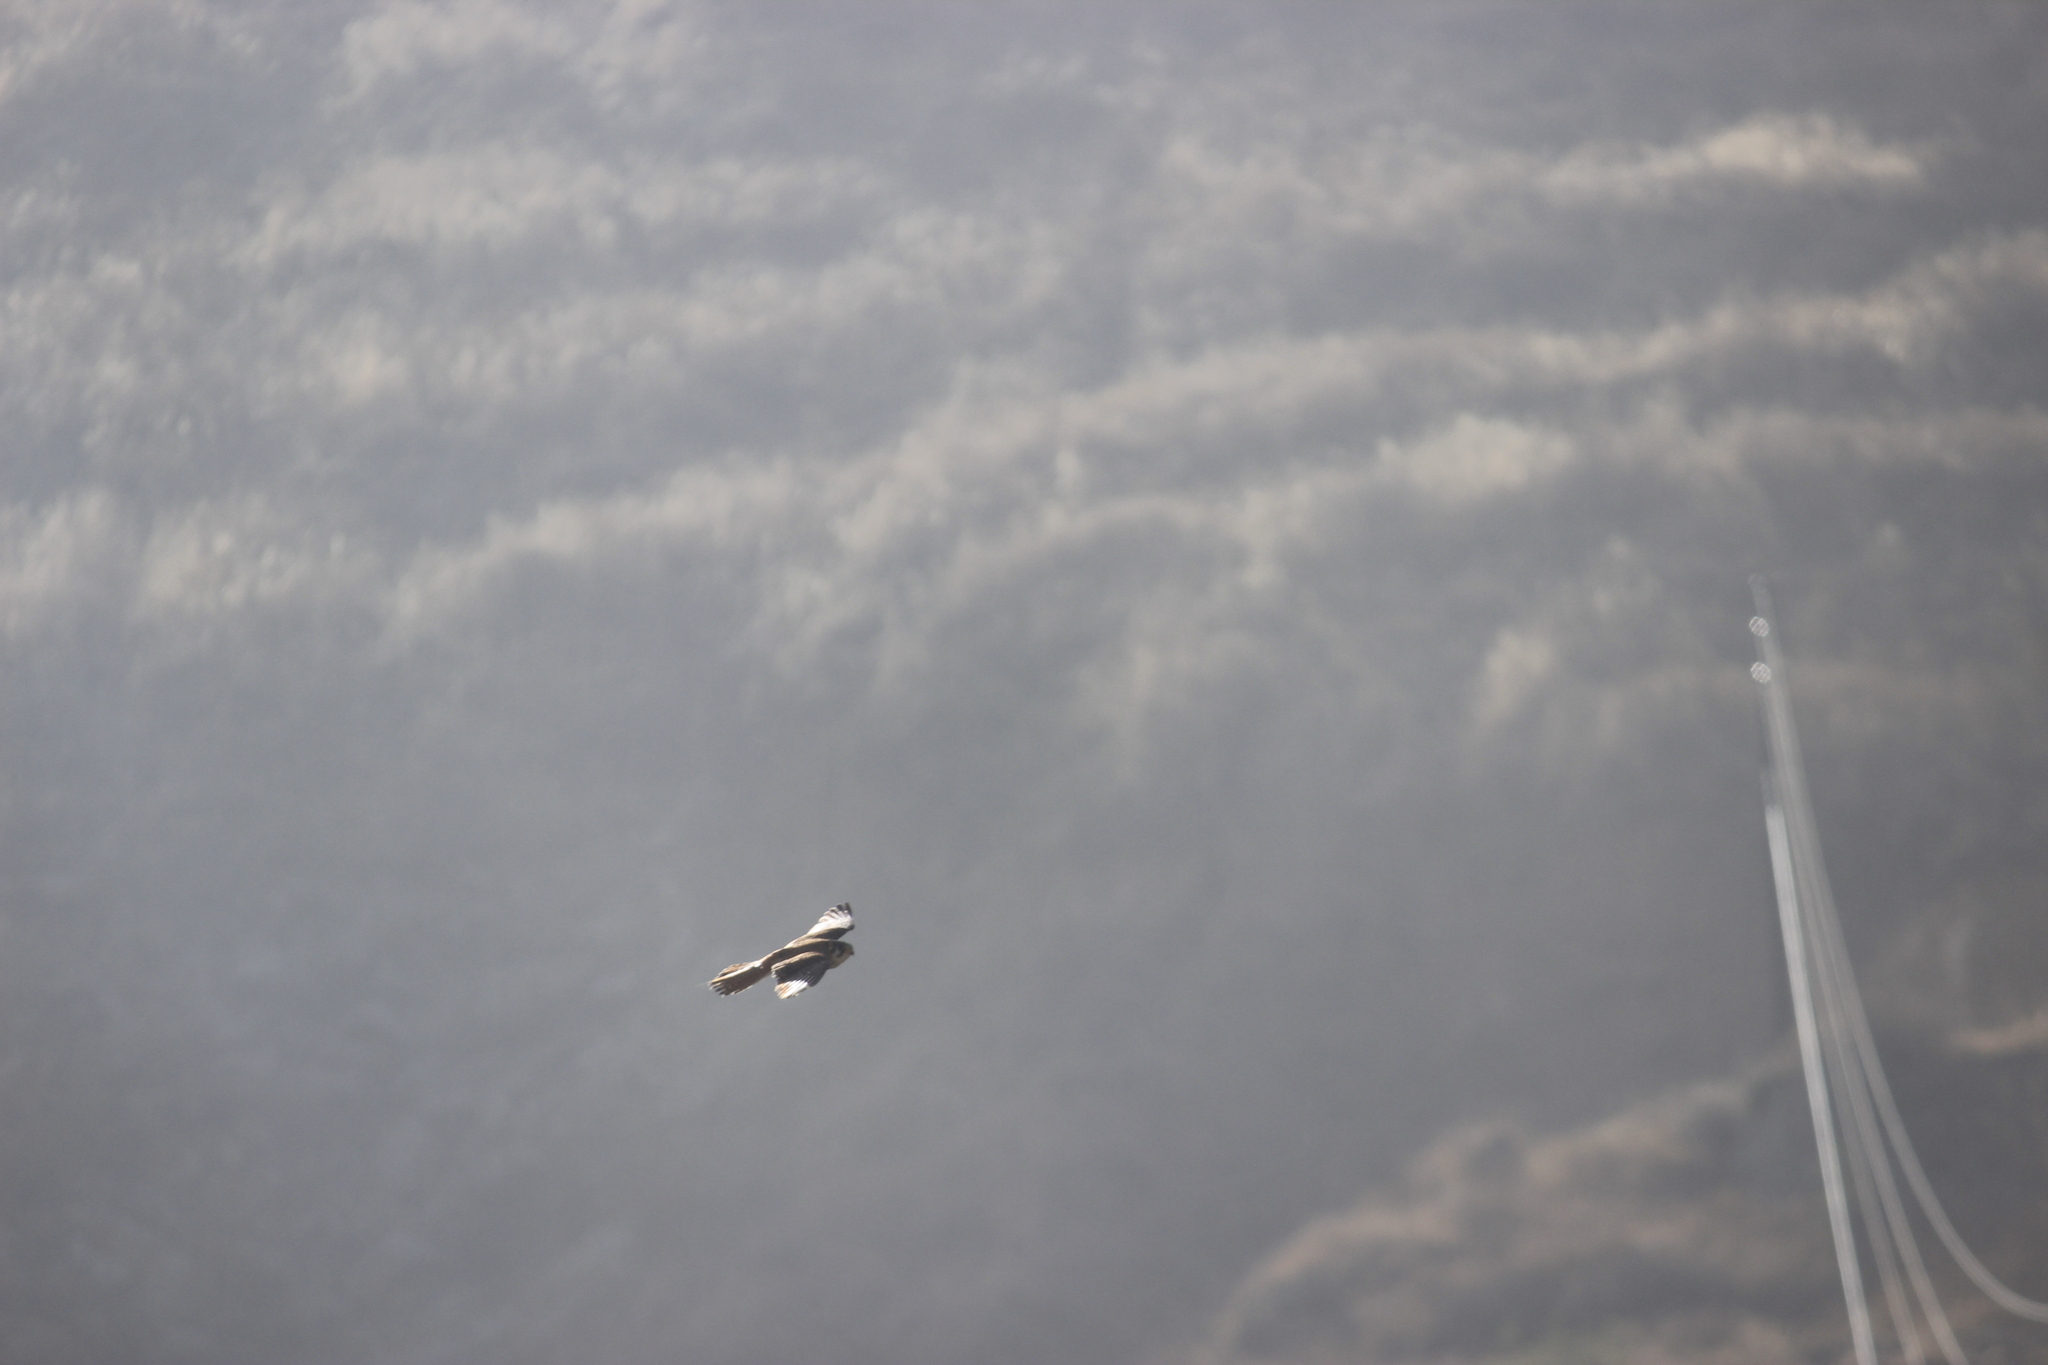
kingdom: Animalia
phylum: Chordata
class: Aves
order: Falconiformes
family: Falconidae
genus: Falco
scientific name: Falco sparverius
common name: American kestrel
